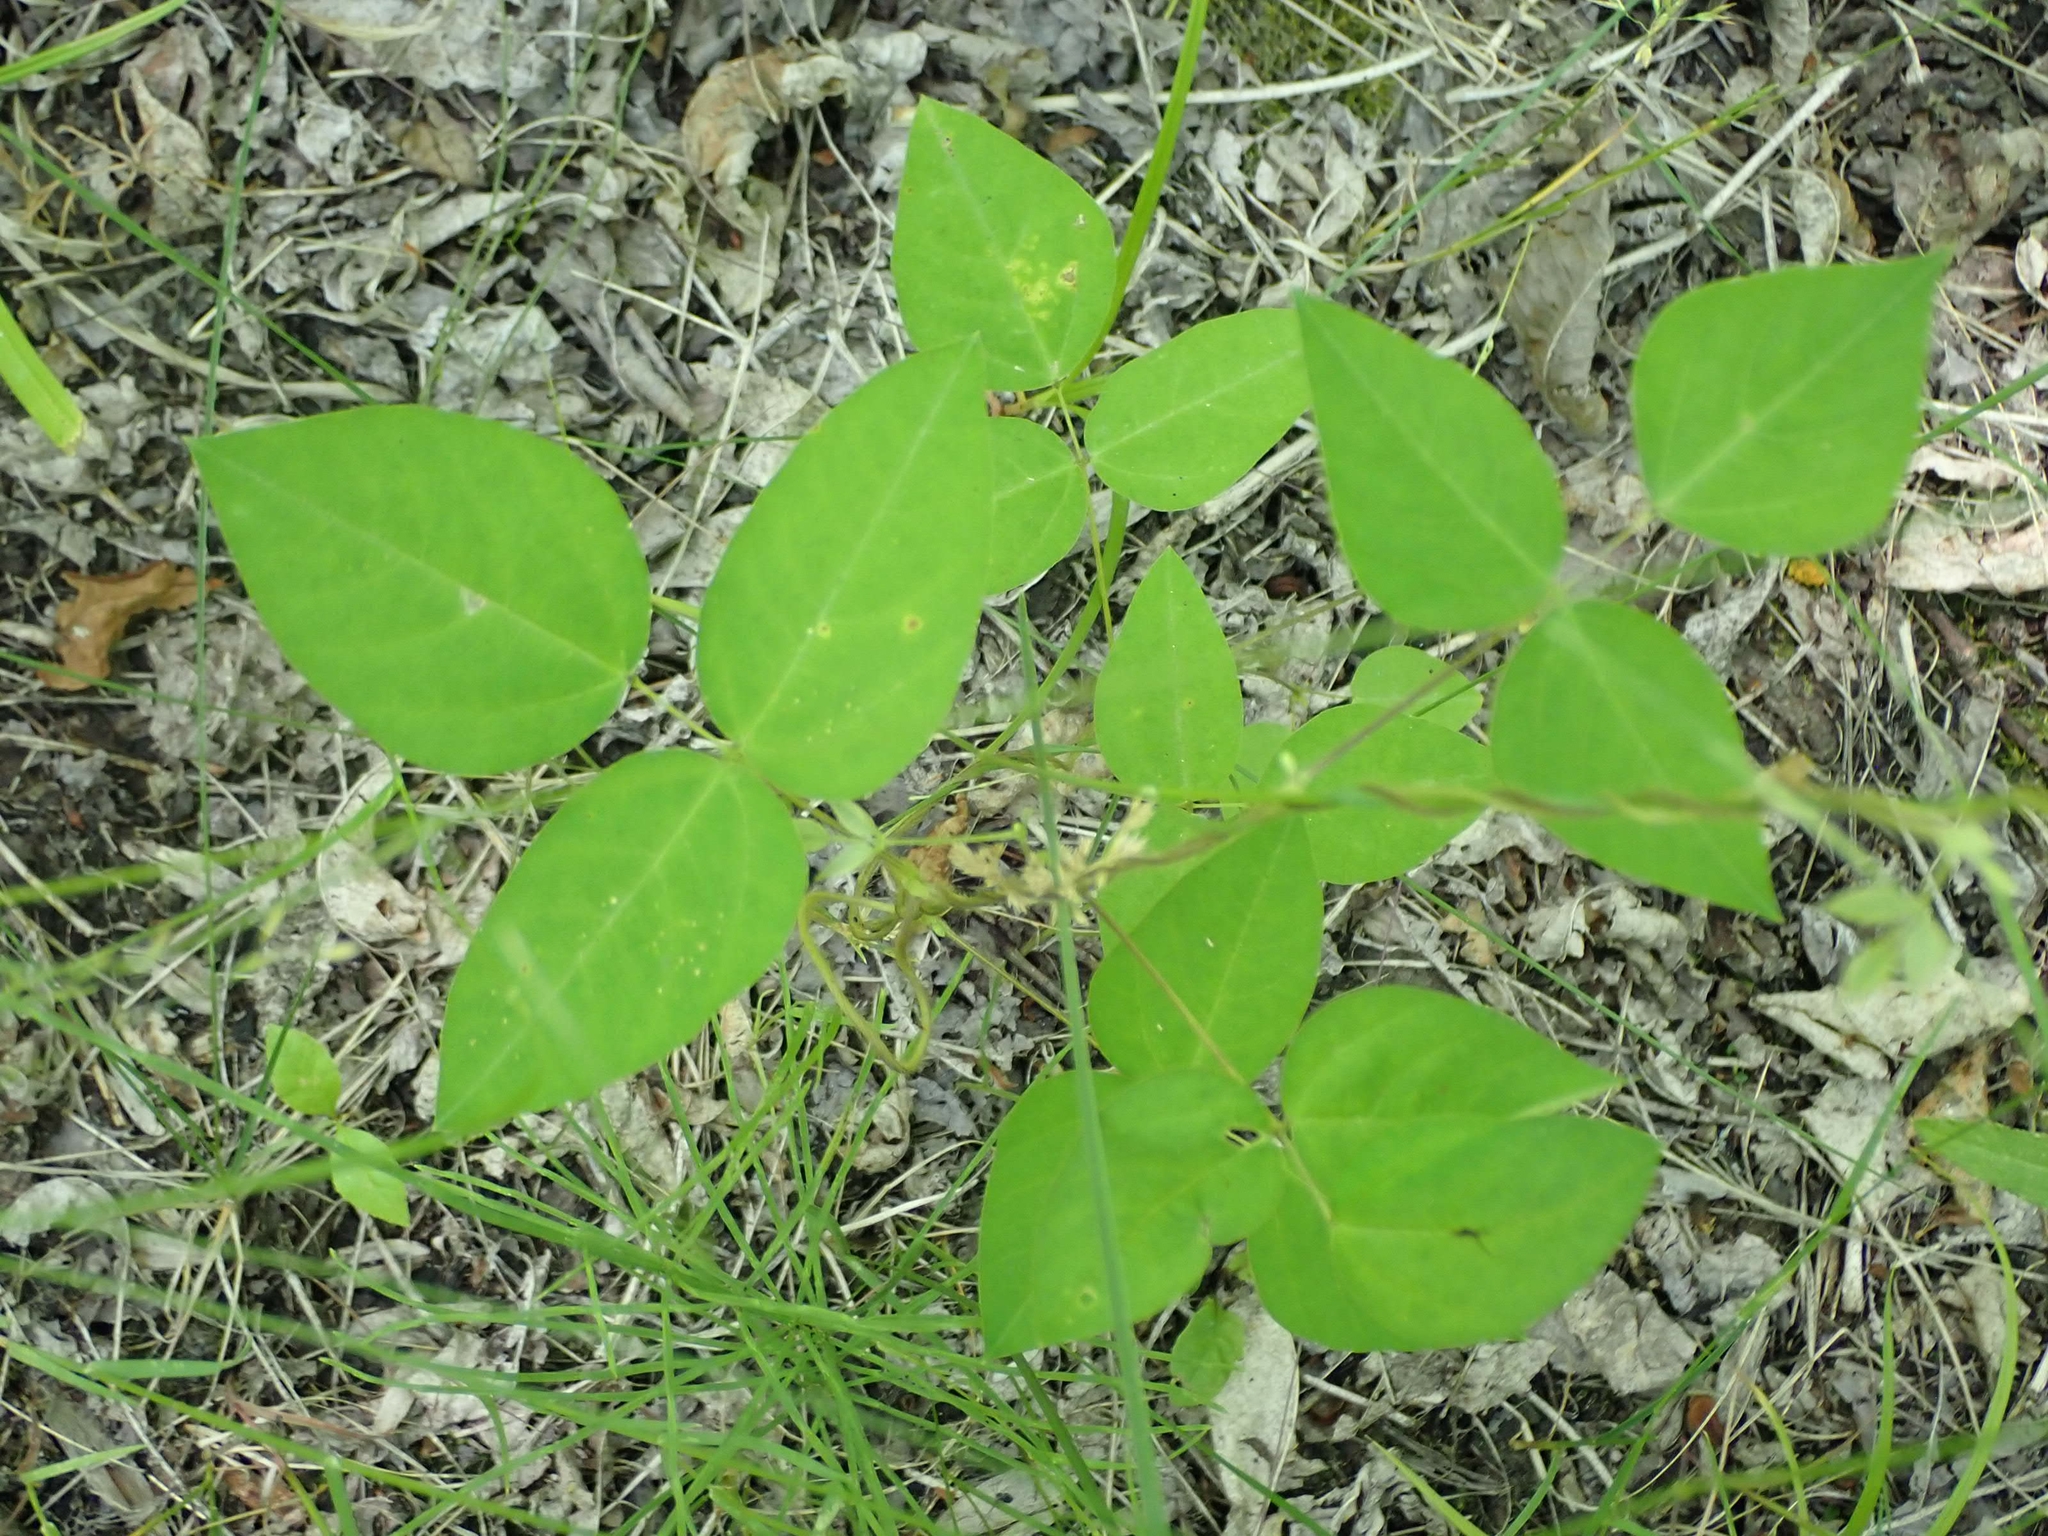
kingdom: Plantae
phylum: Tracheophyta
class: Magnoliopsida
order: Fabales
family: Fabaceae
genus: Amphicarpaea
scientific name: Amphicarpaea bracteata
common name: American hog peanut
